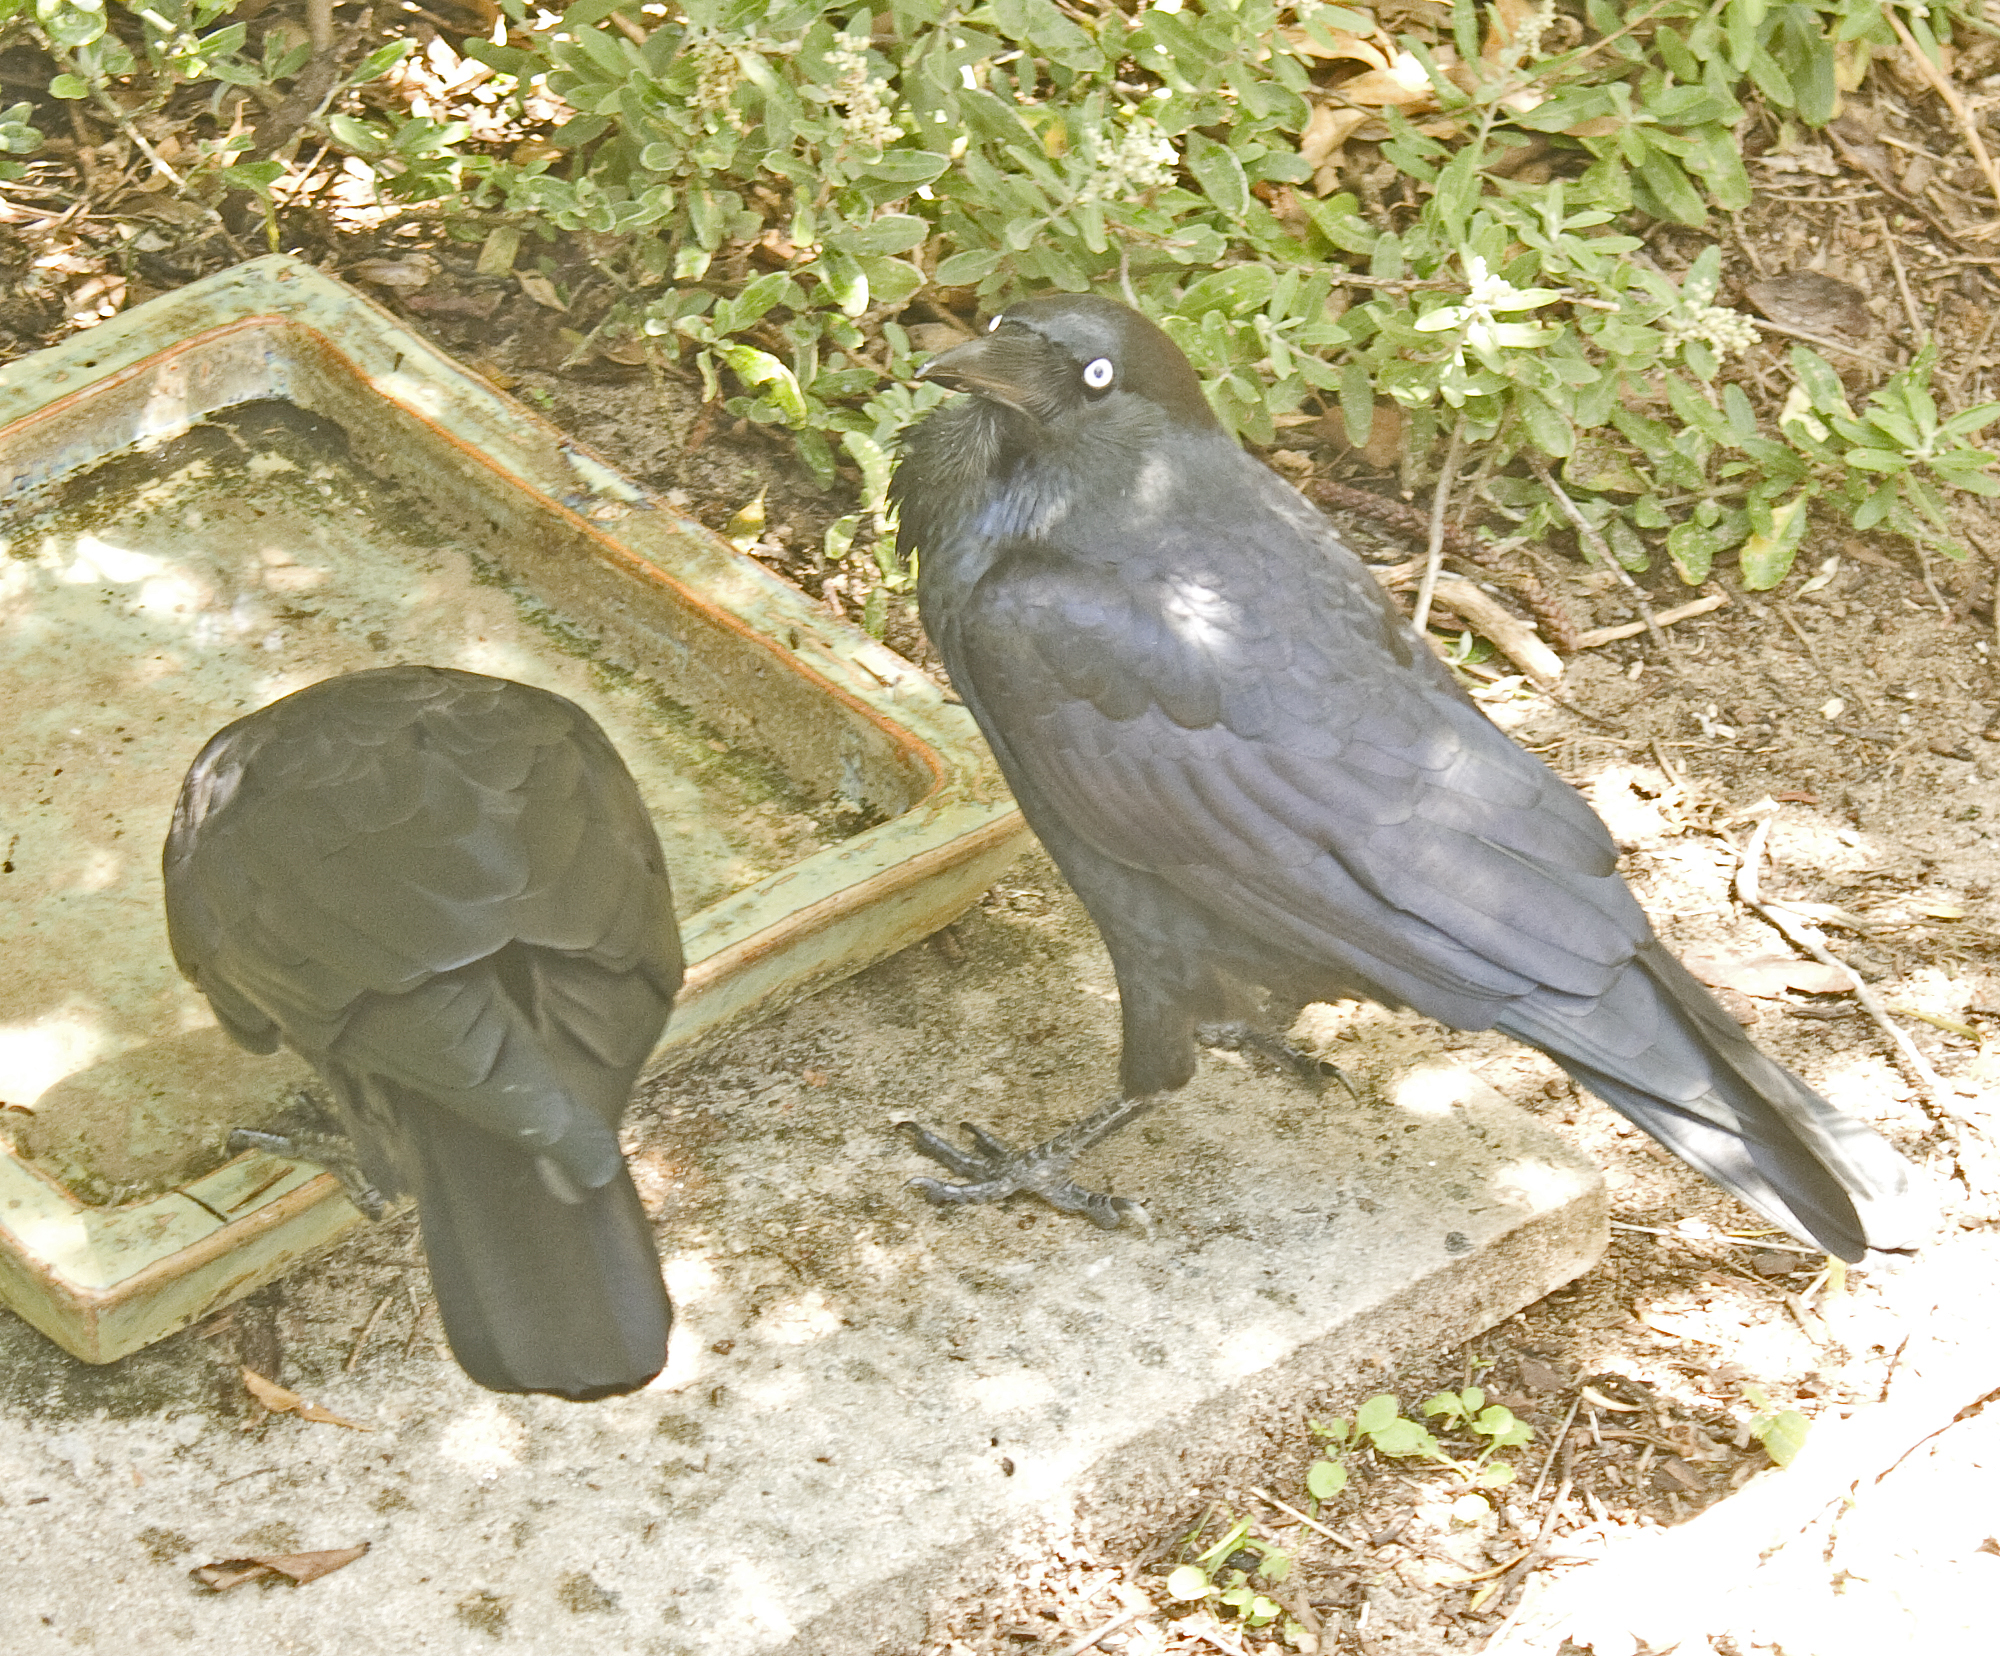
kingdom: Animalia
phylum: Chordata
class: Aves
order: Passeriformes
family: Corvidae
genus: Corvus
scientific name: Corvus coronoides
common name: Australian raven
